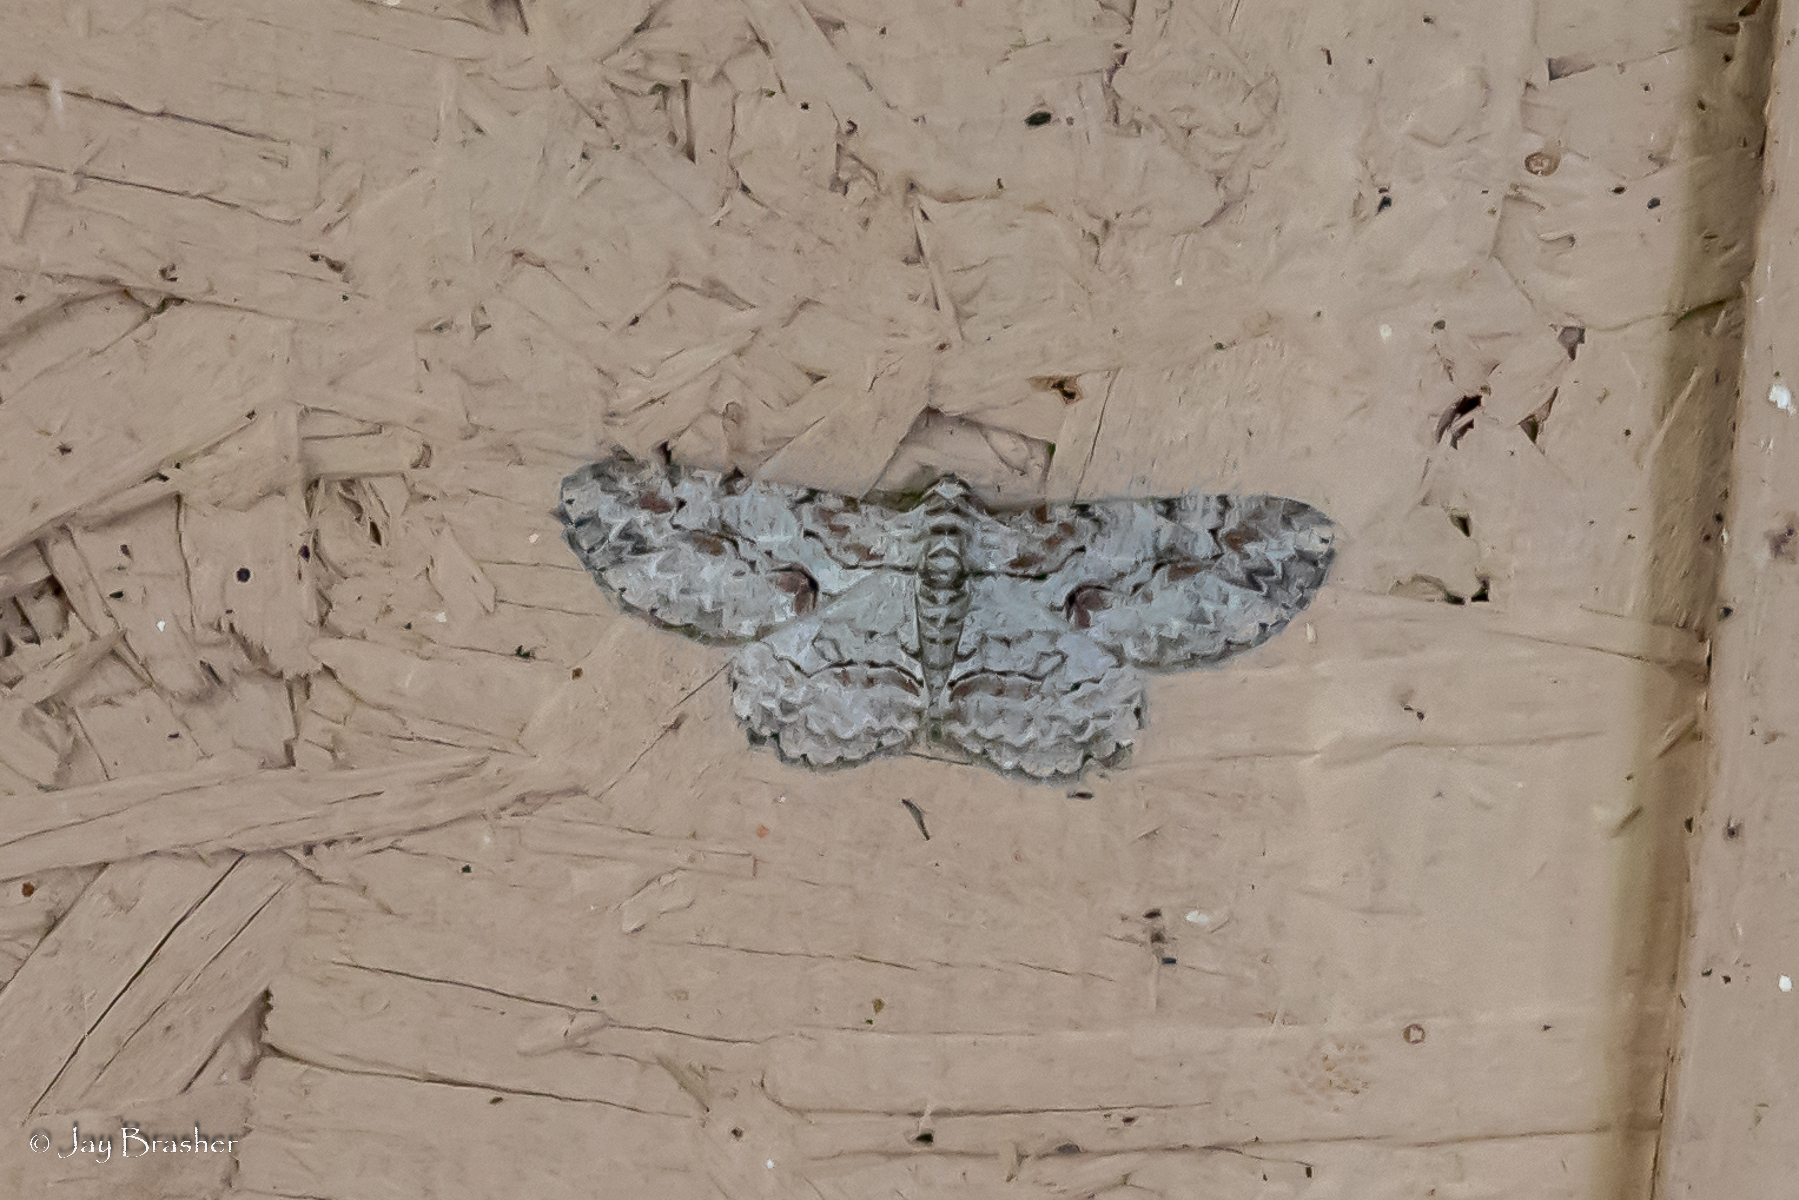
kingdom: Animalia
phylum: Arthropoda
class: Insecta
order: Lepidoptera
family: Geometridae
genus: Iridopsis
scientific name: Iridopsis defectaria
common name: Brown-shaded gray
